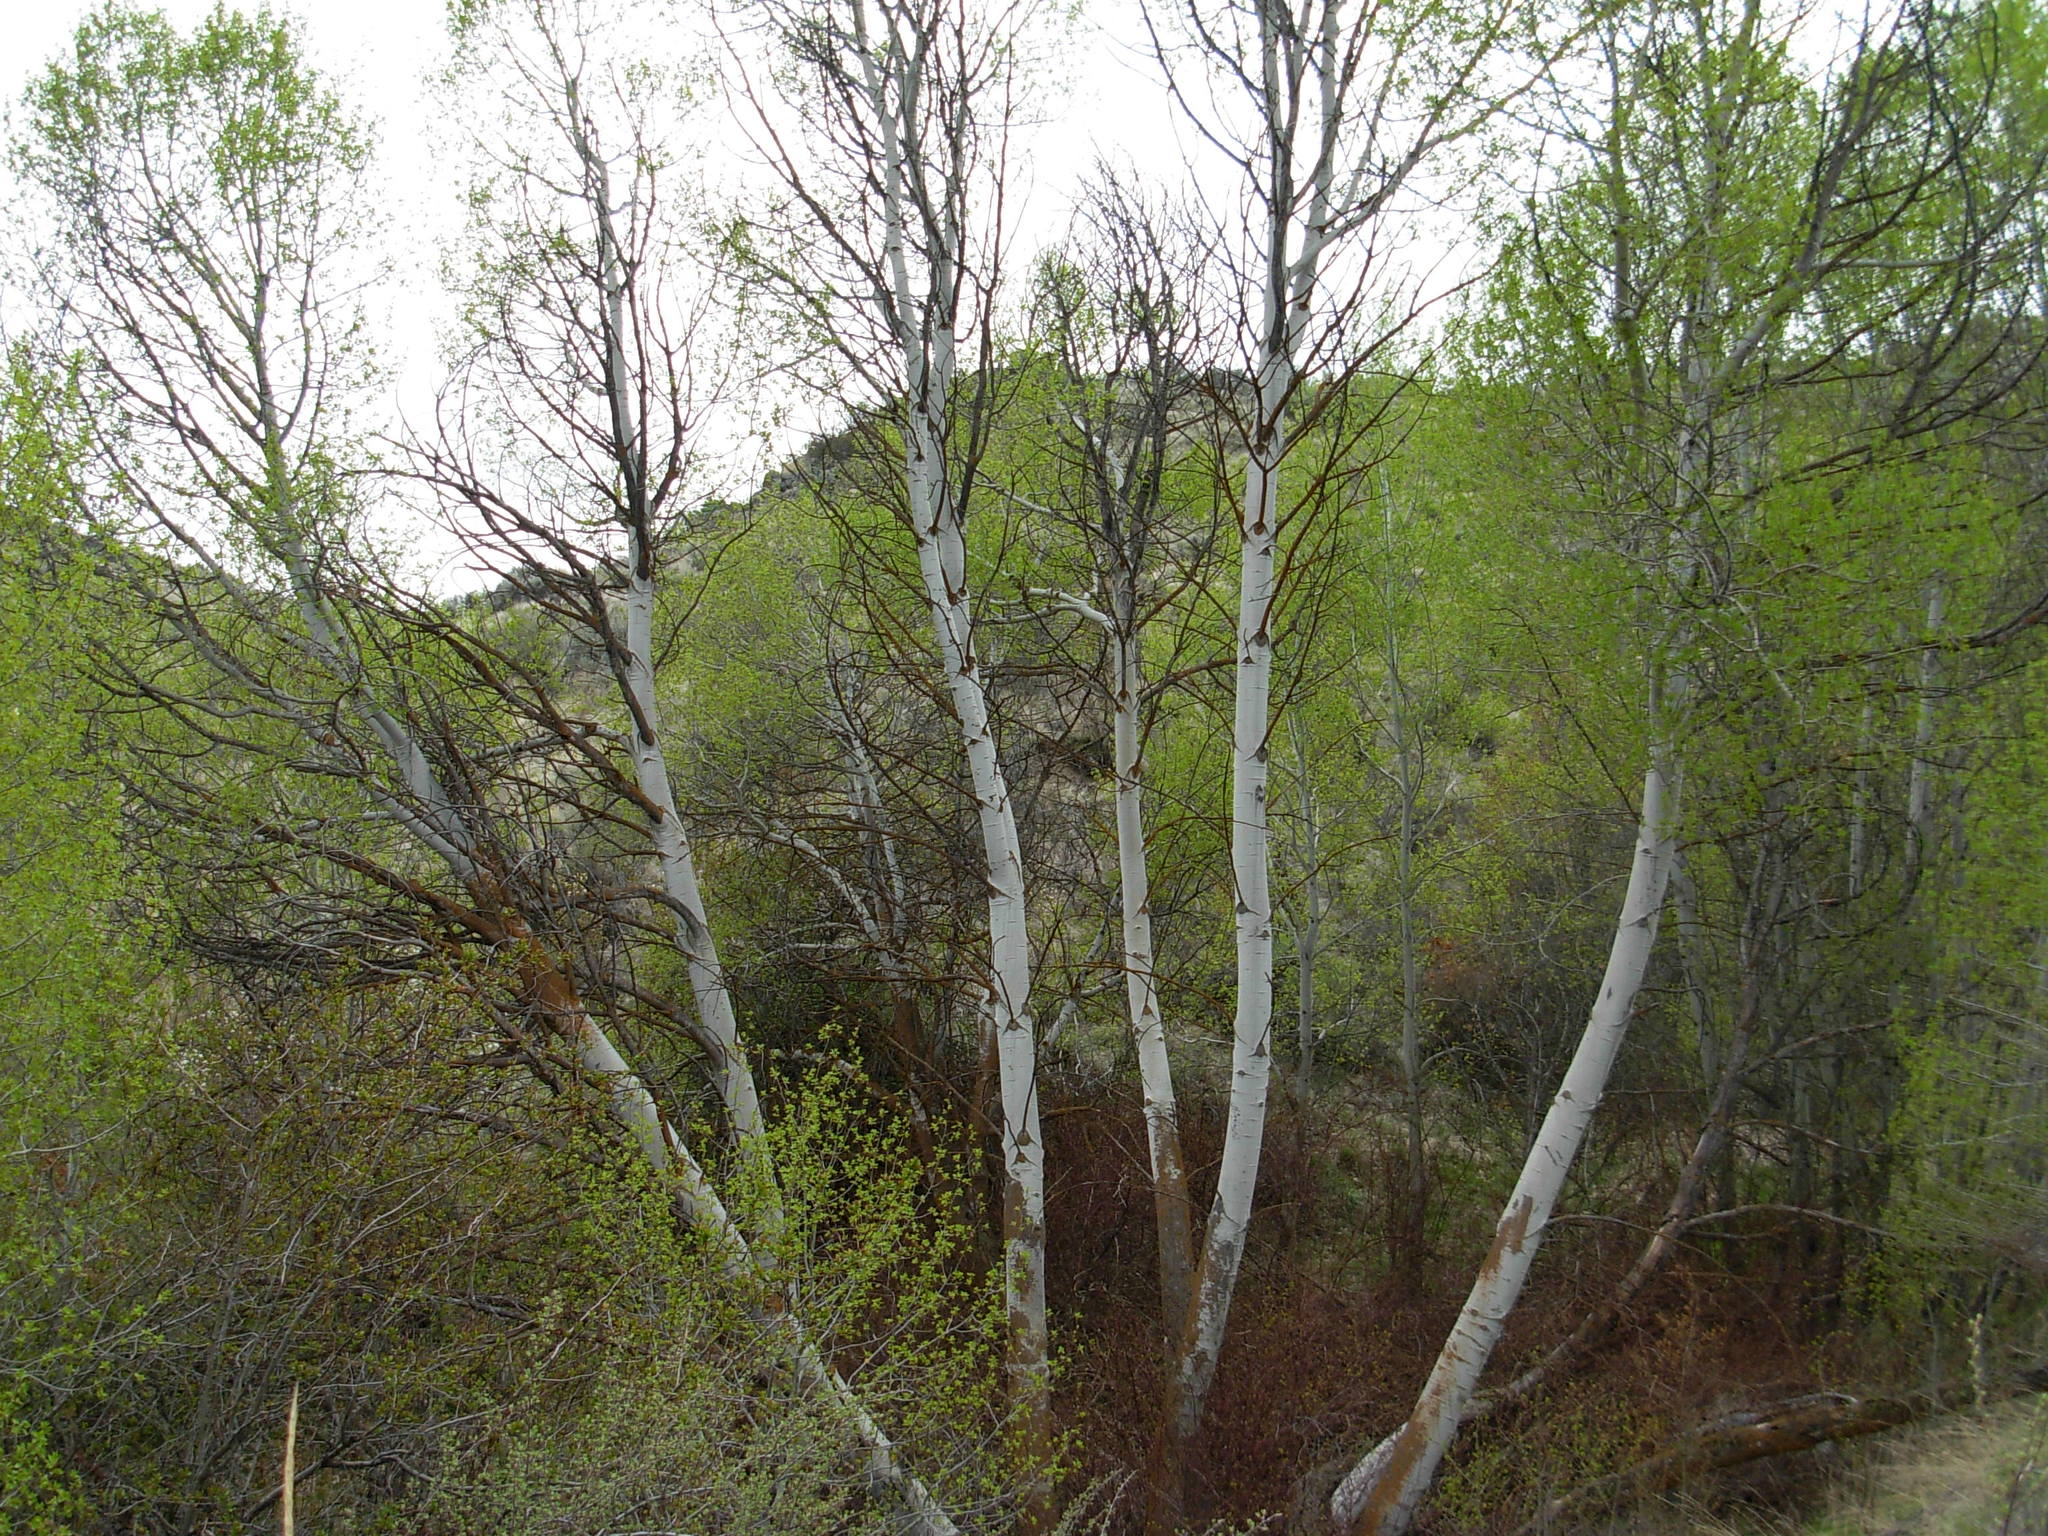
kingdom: Plantae
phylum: Tracheophyta
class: Magnoliopsida
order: Malpighiales
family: Salicaceae
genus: Populus
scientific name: Populus tremuloides
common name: Quaking aspen
